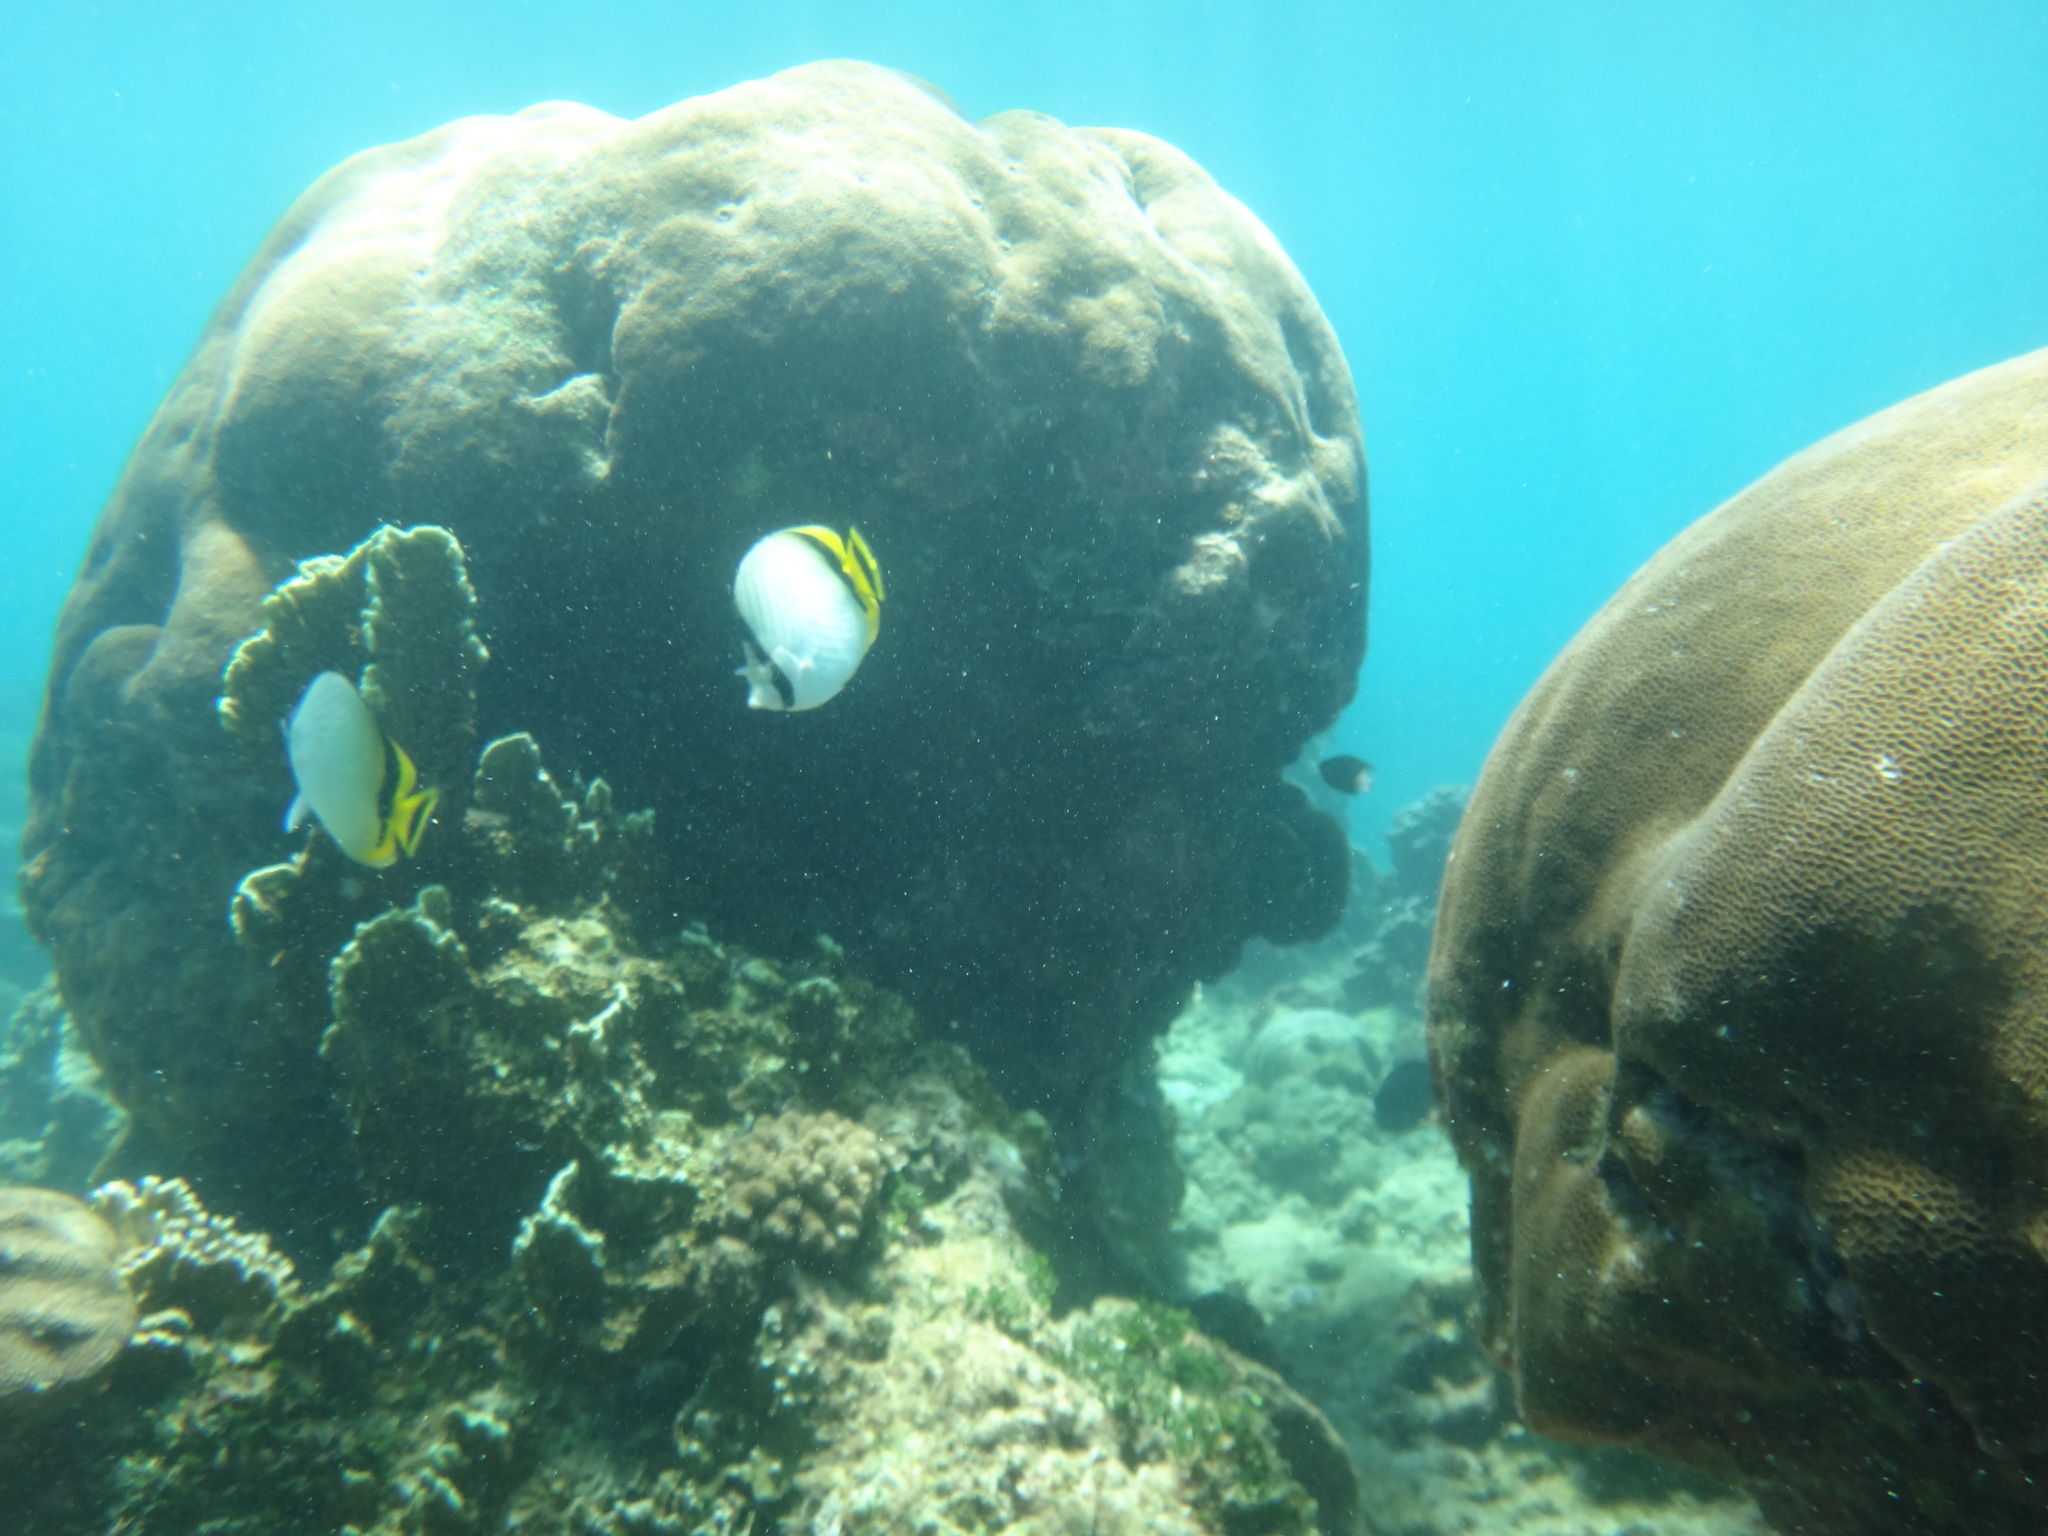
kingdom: Animalia
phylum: Chordata
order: Perciformes
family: Chaetodontidae
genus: Chaetodon
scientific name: Chaetodon vagabundus
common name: Vagabond butterflyfish
